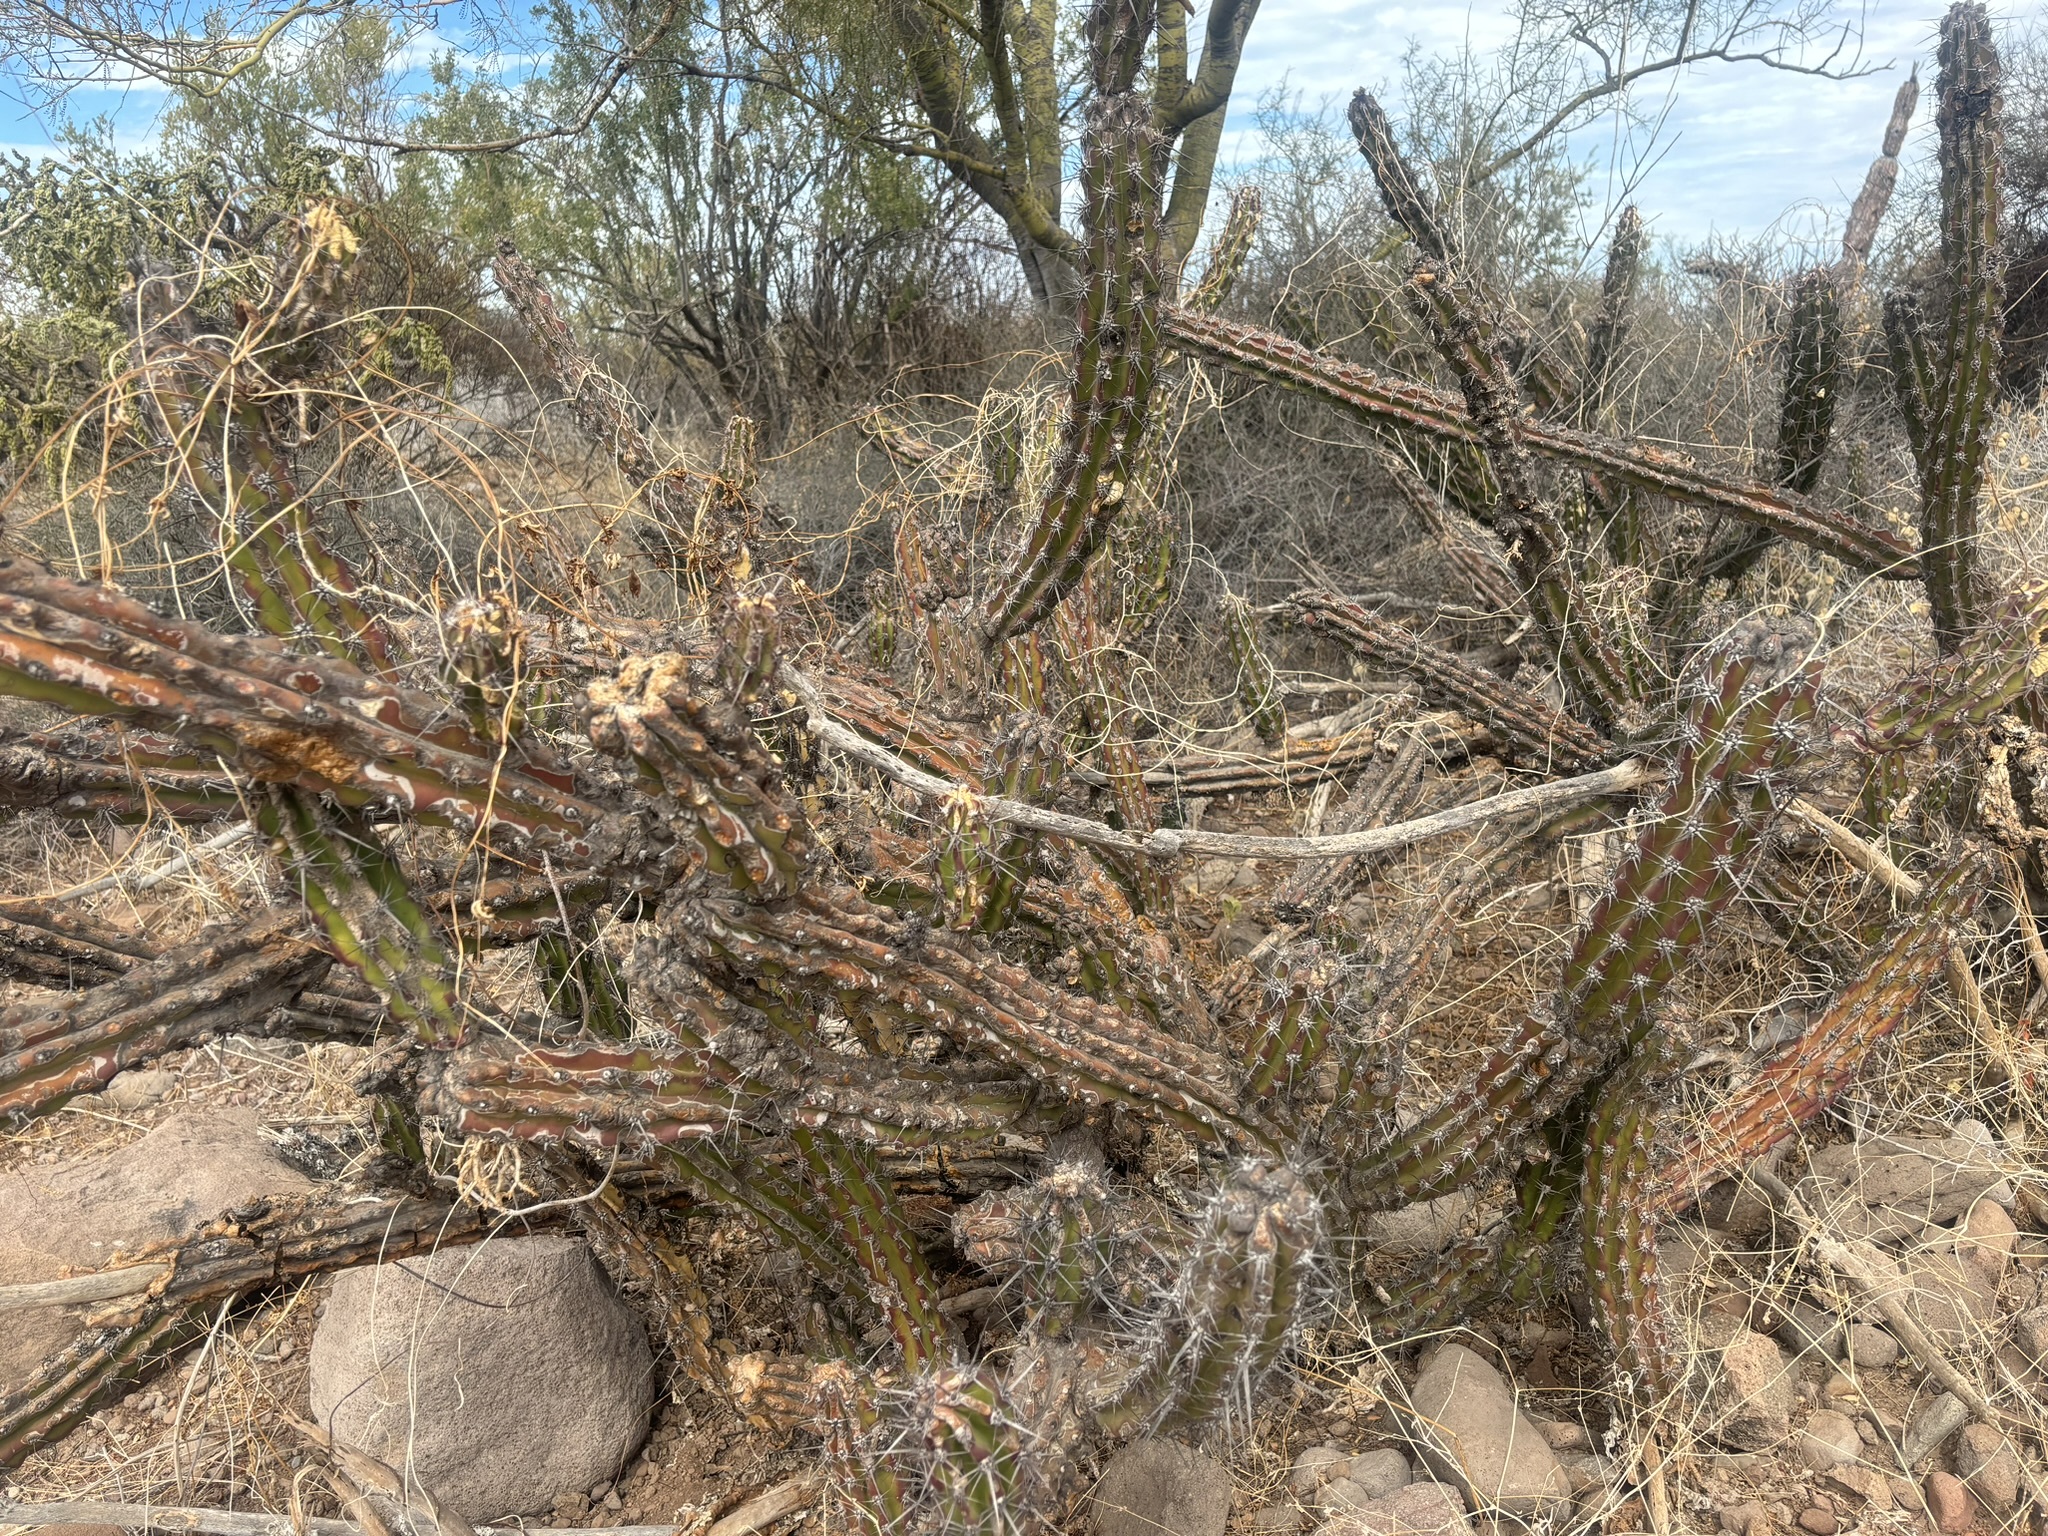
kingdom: Plantae
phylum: Tracheophyta
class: Magnoliopsida
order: Caryophyllales
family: Cactaceae
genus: Stenocereus
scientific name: Stenocereus gummosus
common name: Dagger cactus
